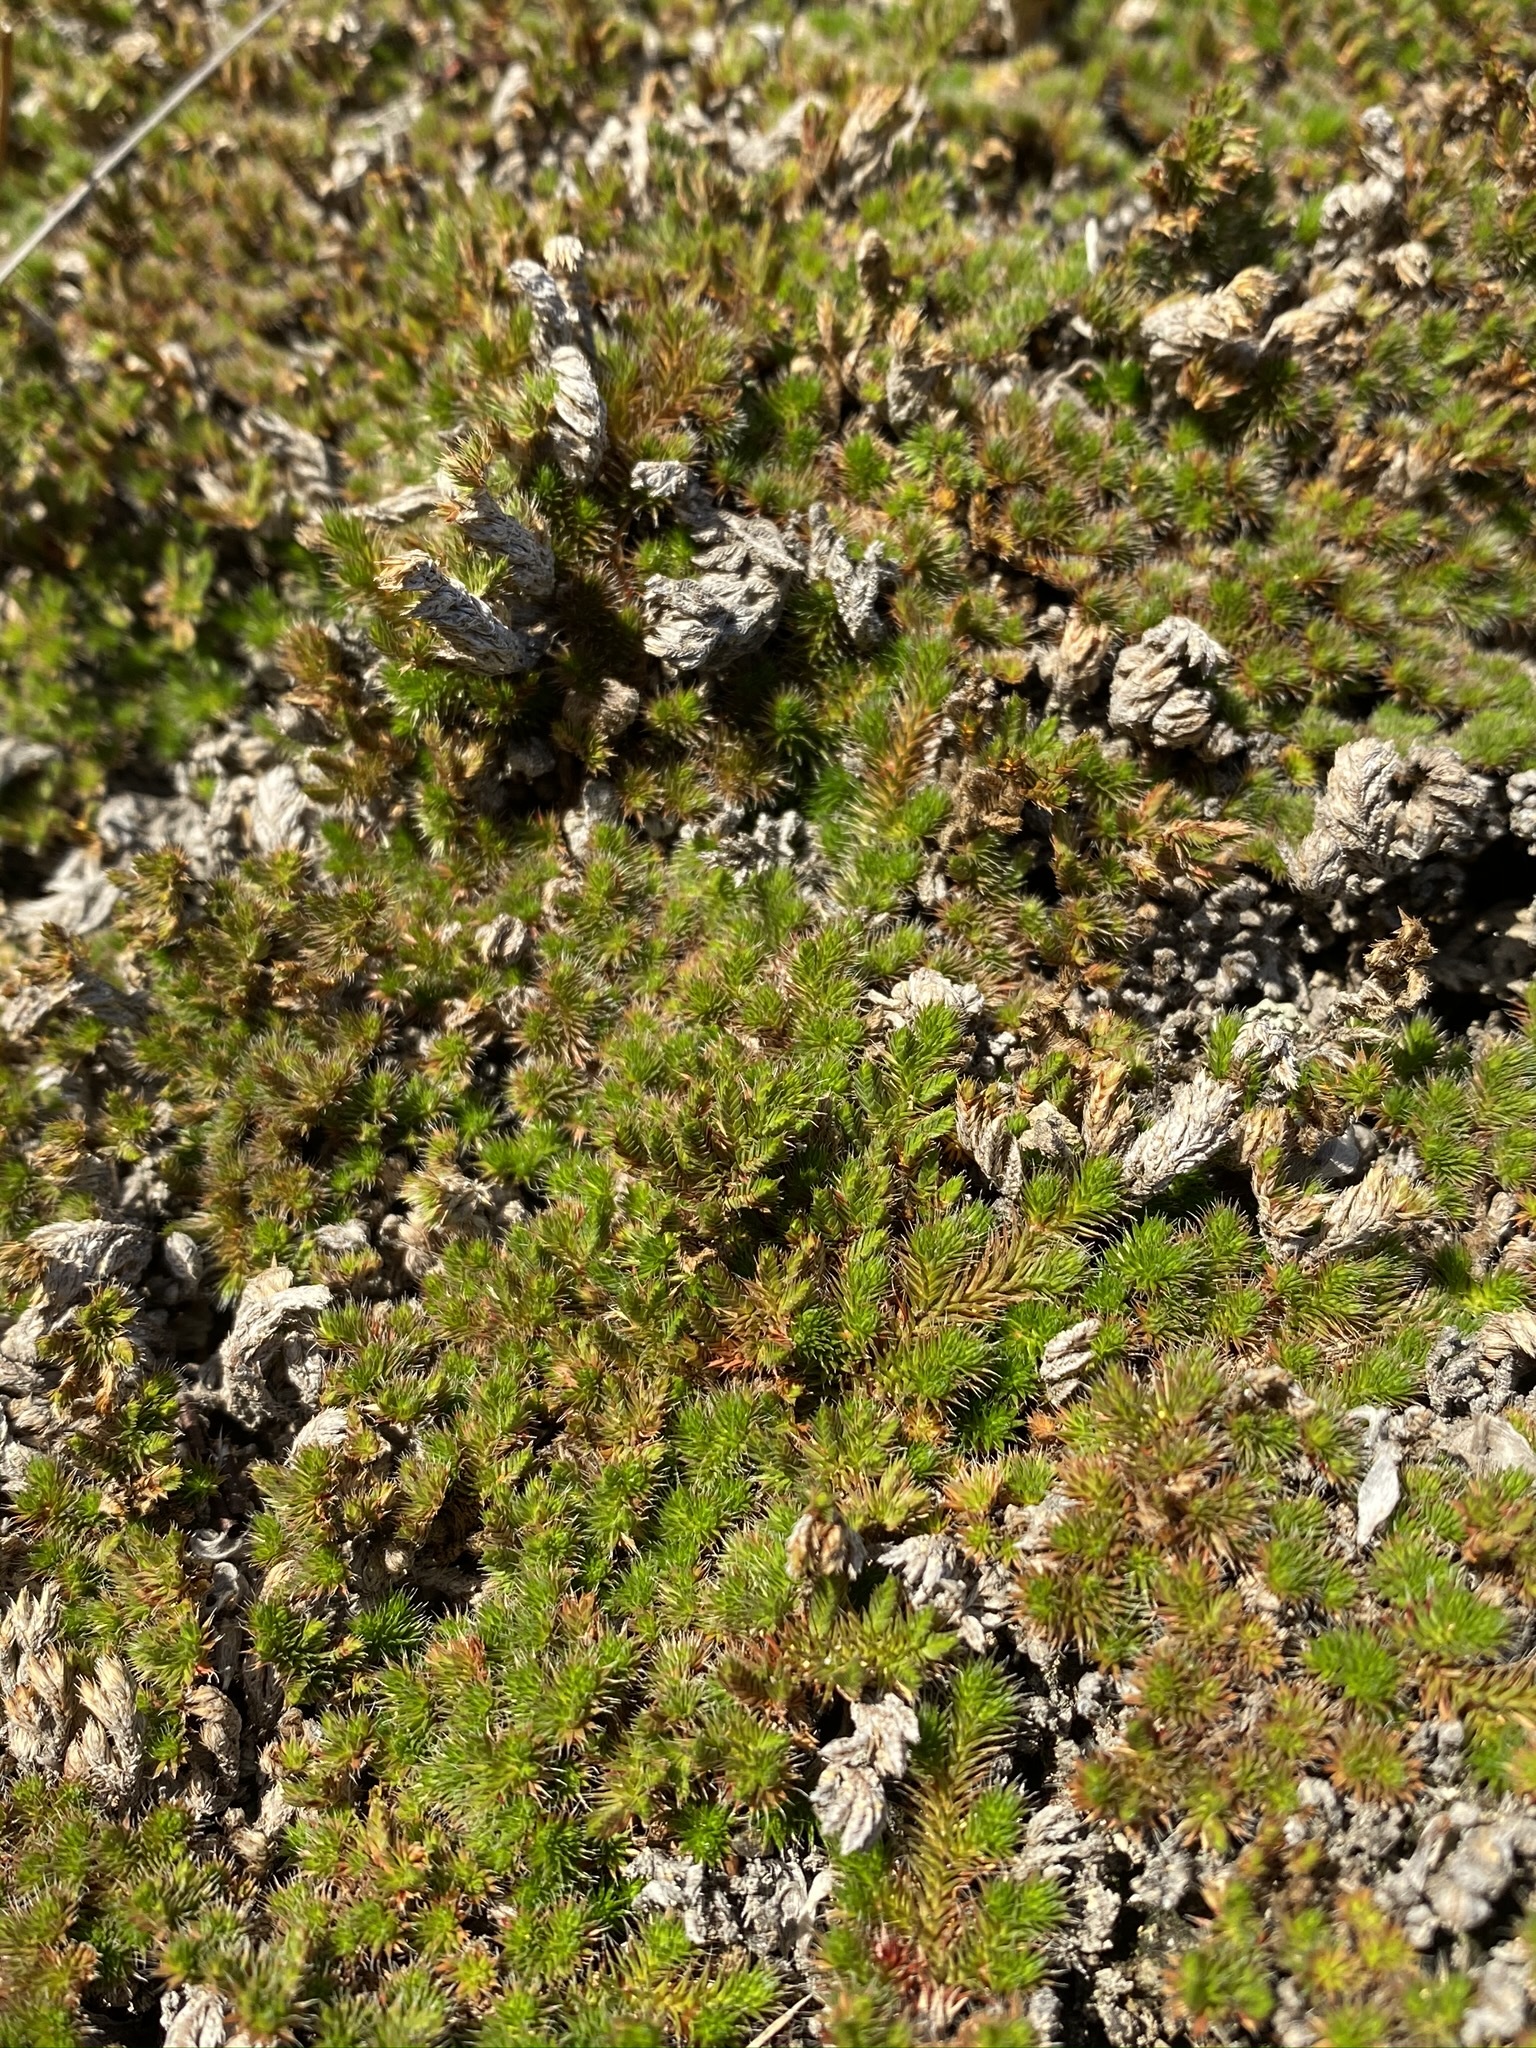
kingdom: Plantae
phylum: Tracheophyta
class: Lycopodiopsida
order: Selaginellales
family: Selaginellaceae
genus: Selaginella
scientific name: Selaginella hansenii
